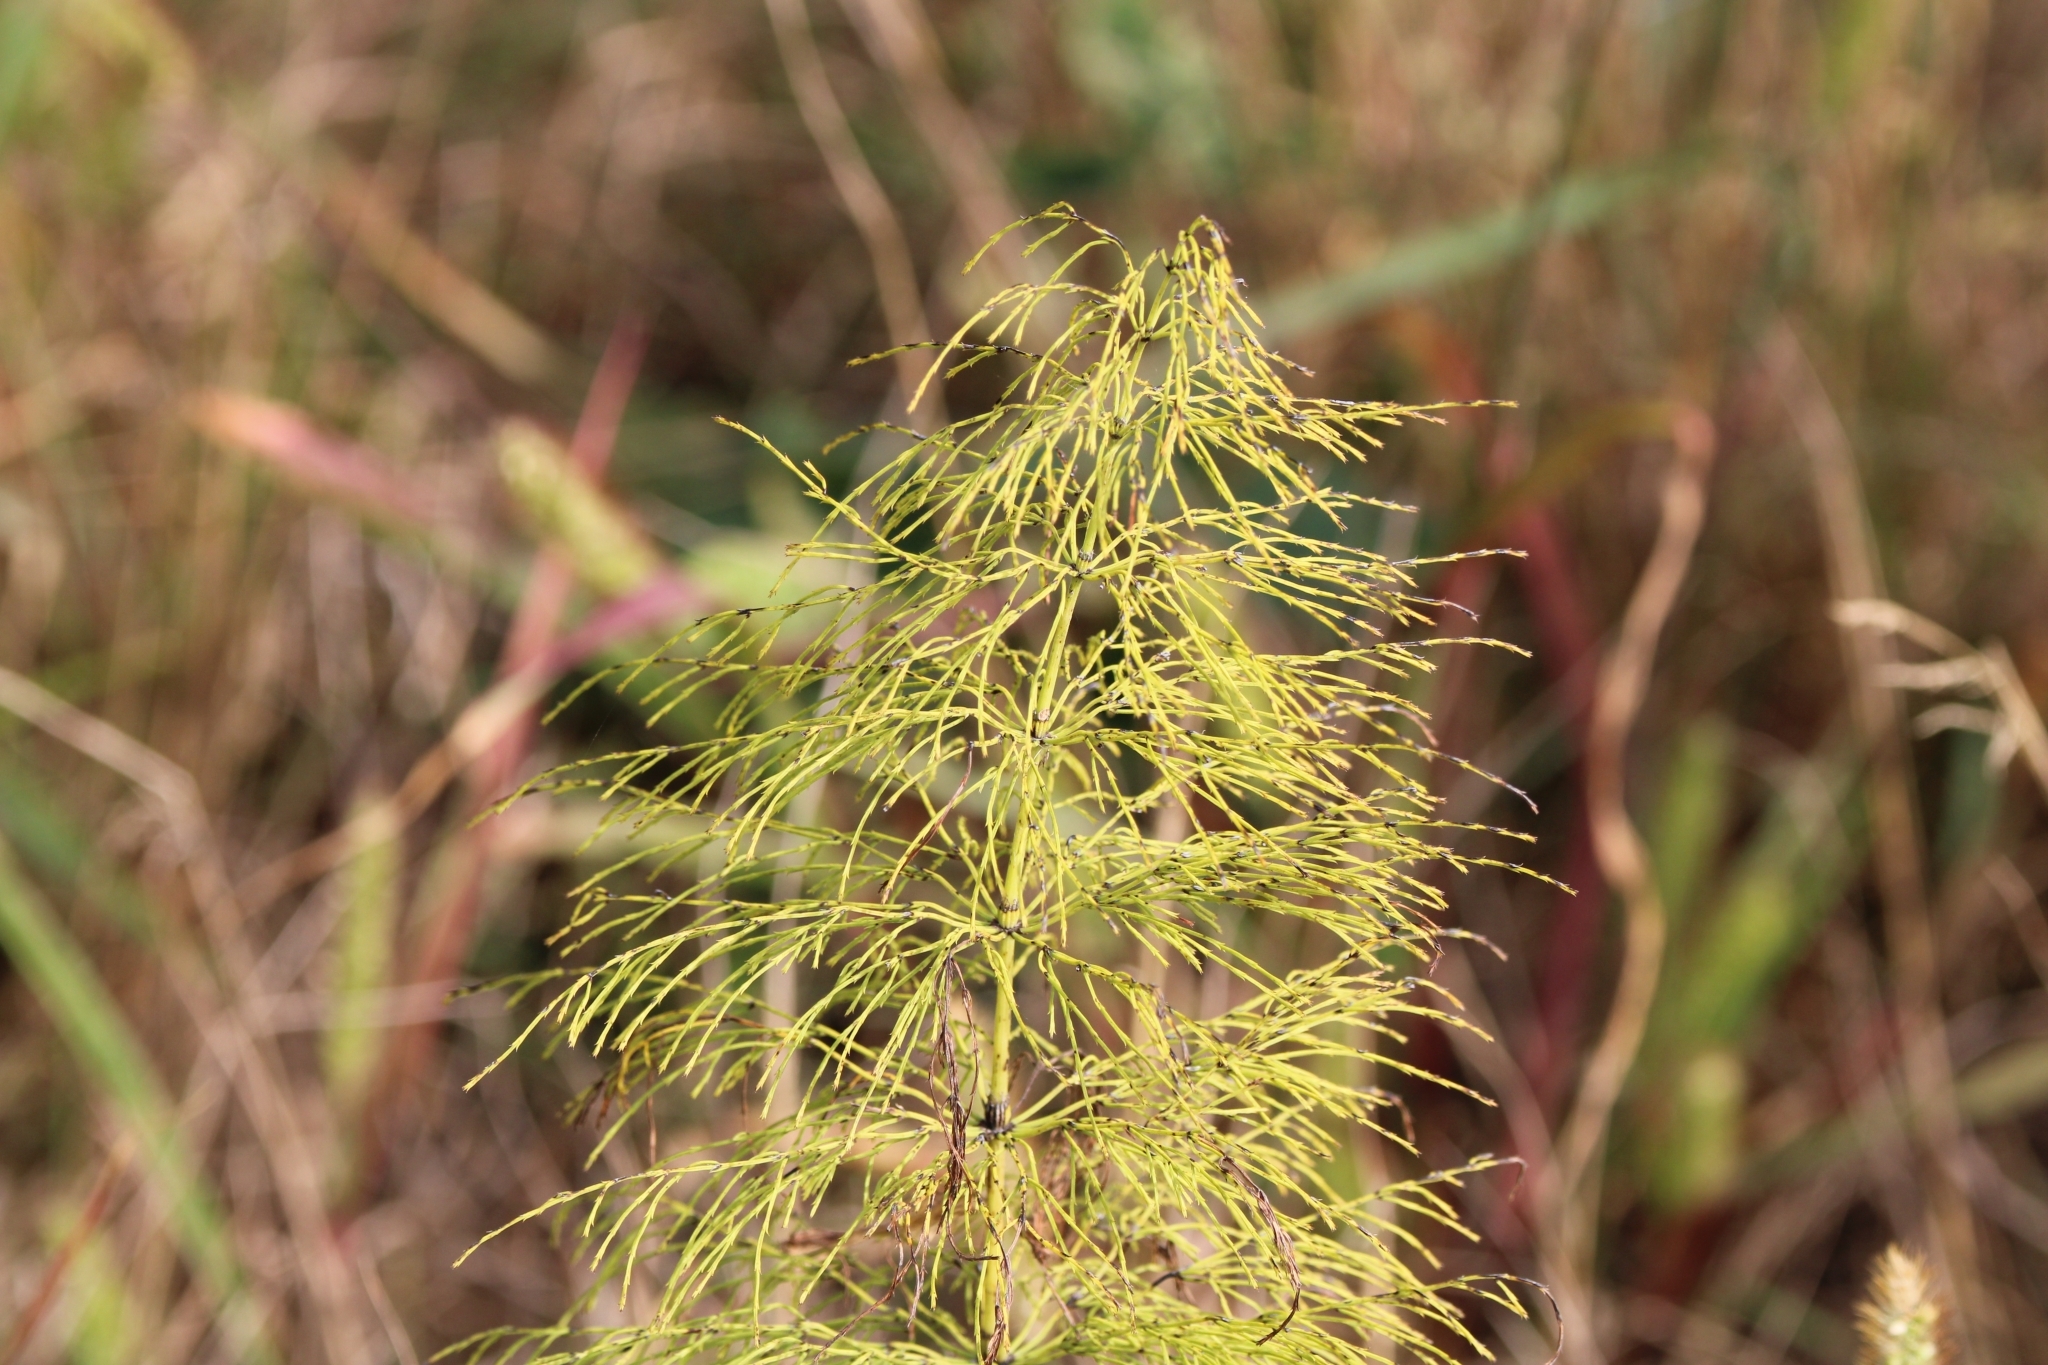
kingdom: Plantae
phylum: Tracheophyta
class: Polypodiopsida
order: Equisetales
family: Equisetaceae
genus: Equisetum
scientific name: Equisetum sylvaticum
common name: Wood horsetail
